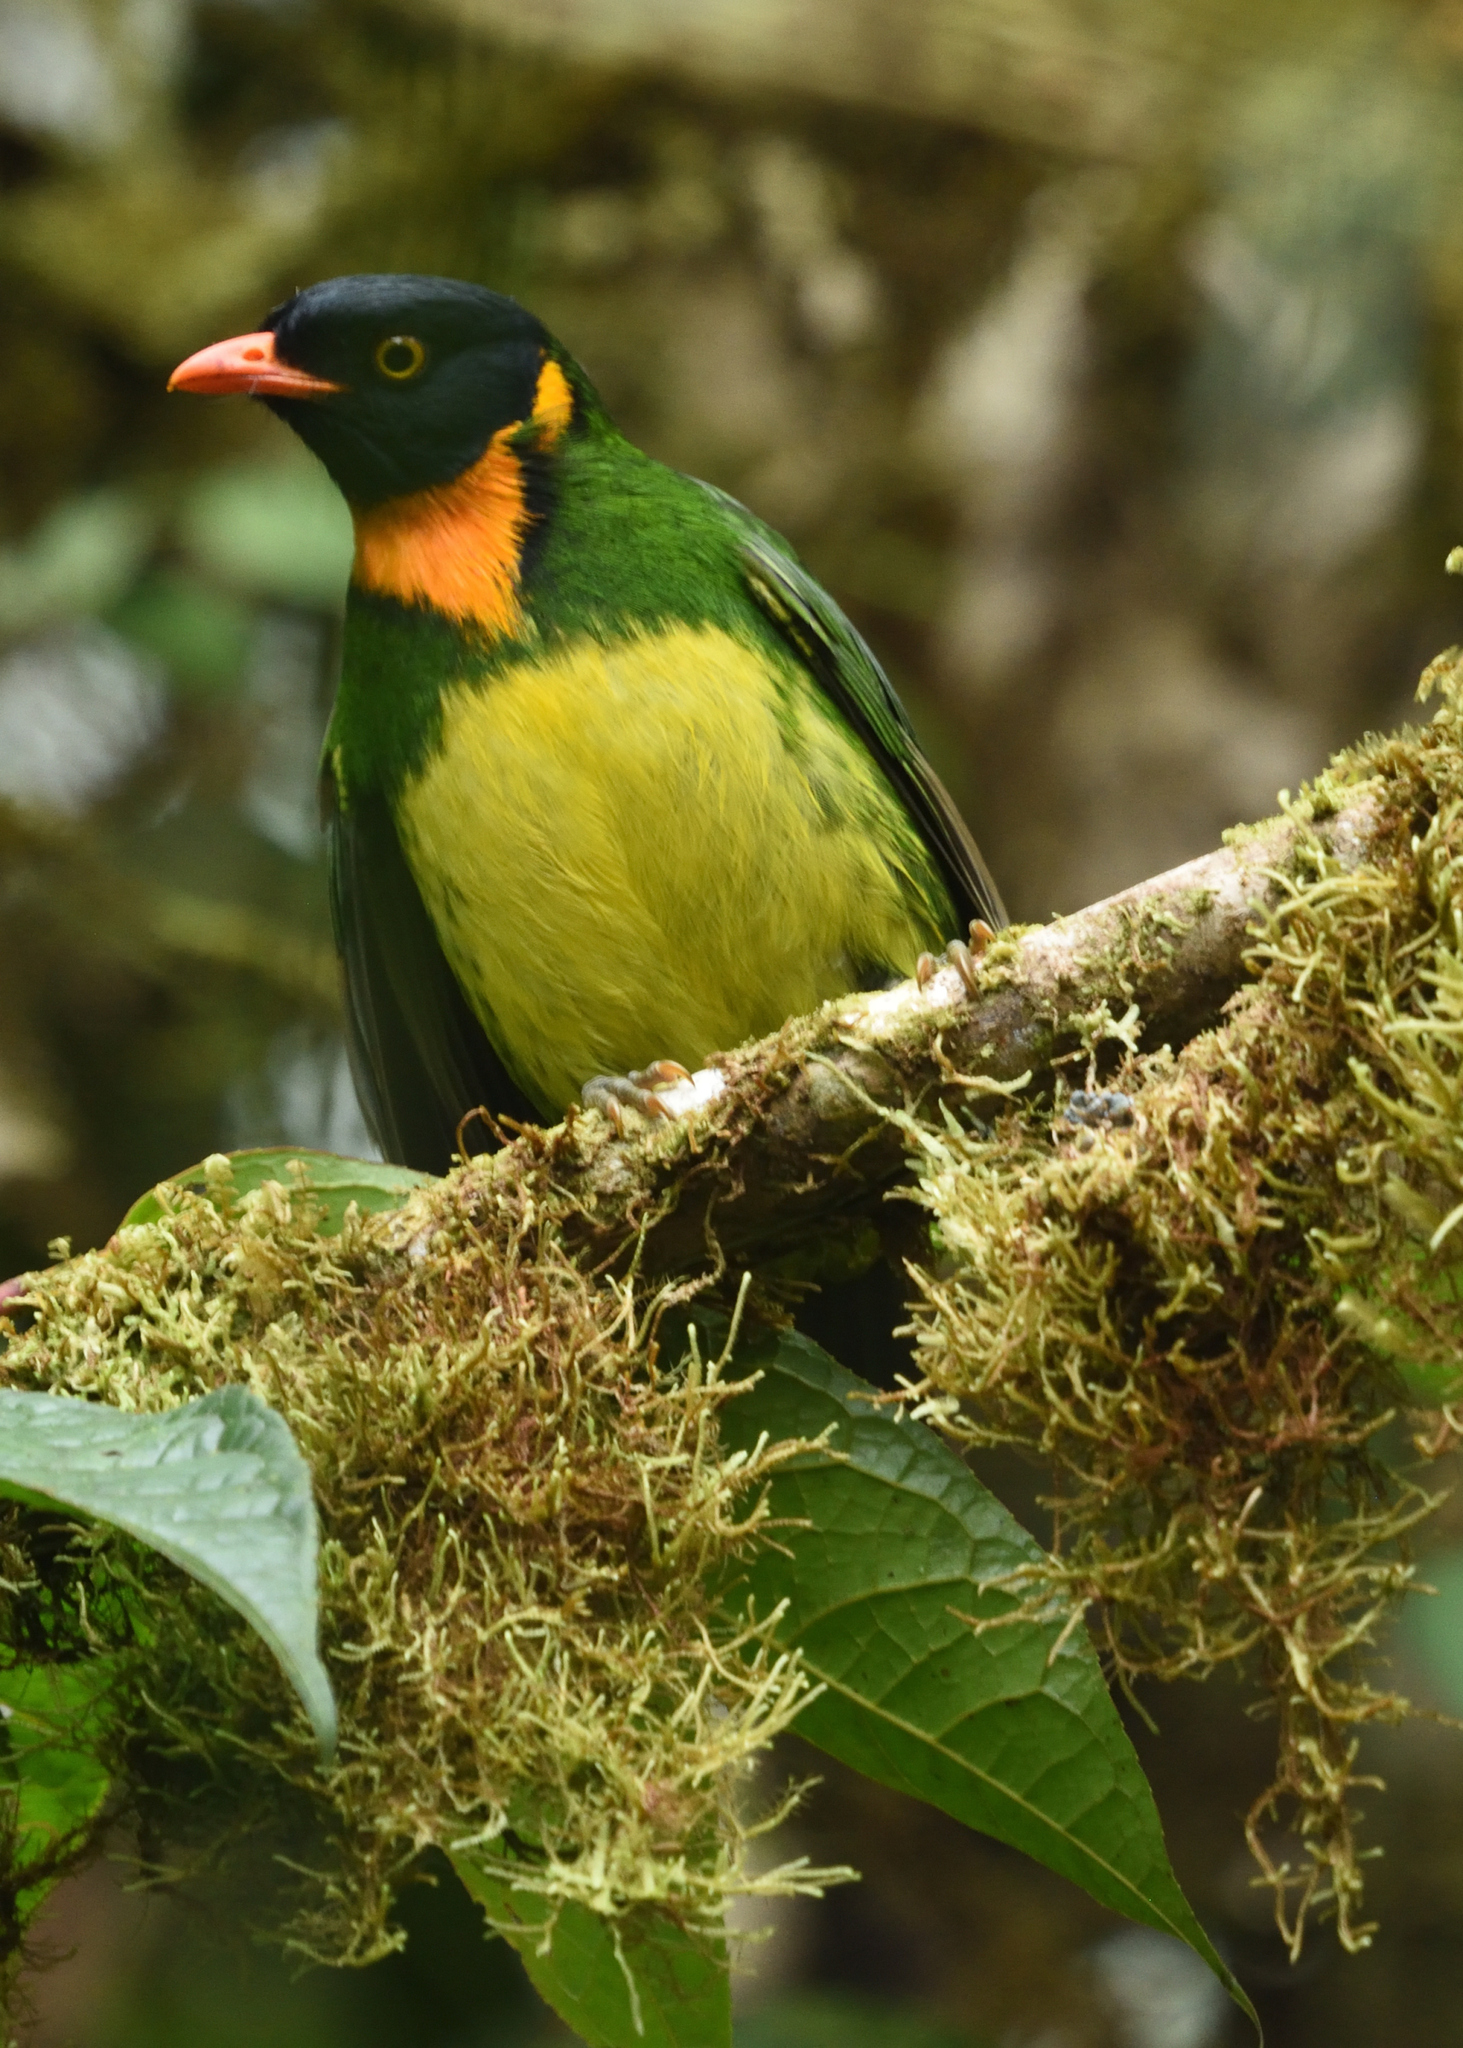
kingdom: Animalia
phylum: Chordata
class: Aves
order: Passeriformes
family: Cotingidae
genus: Pipreola
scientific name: Pipreola jucunda
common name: Orange-breasted fruiteater
